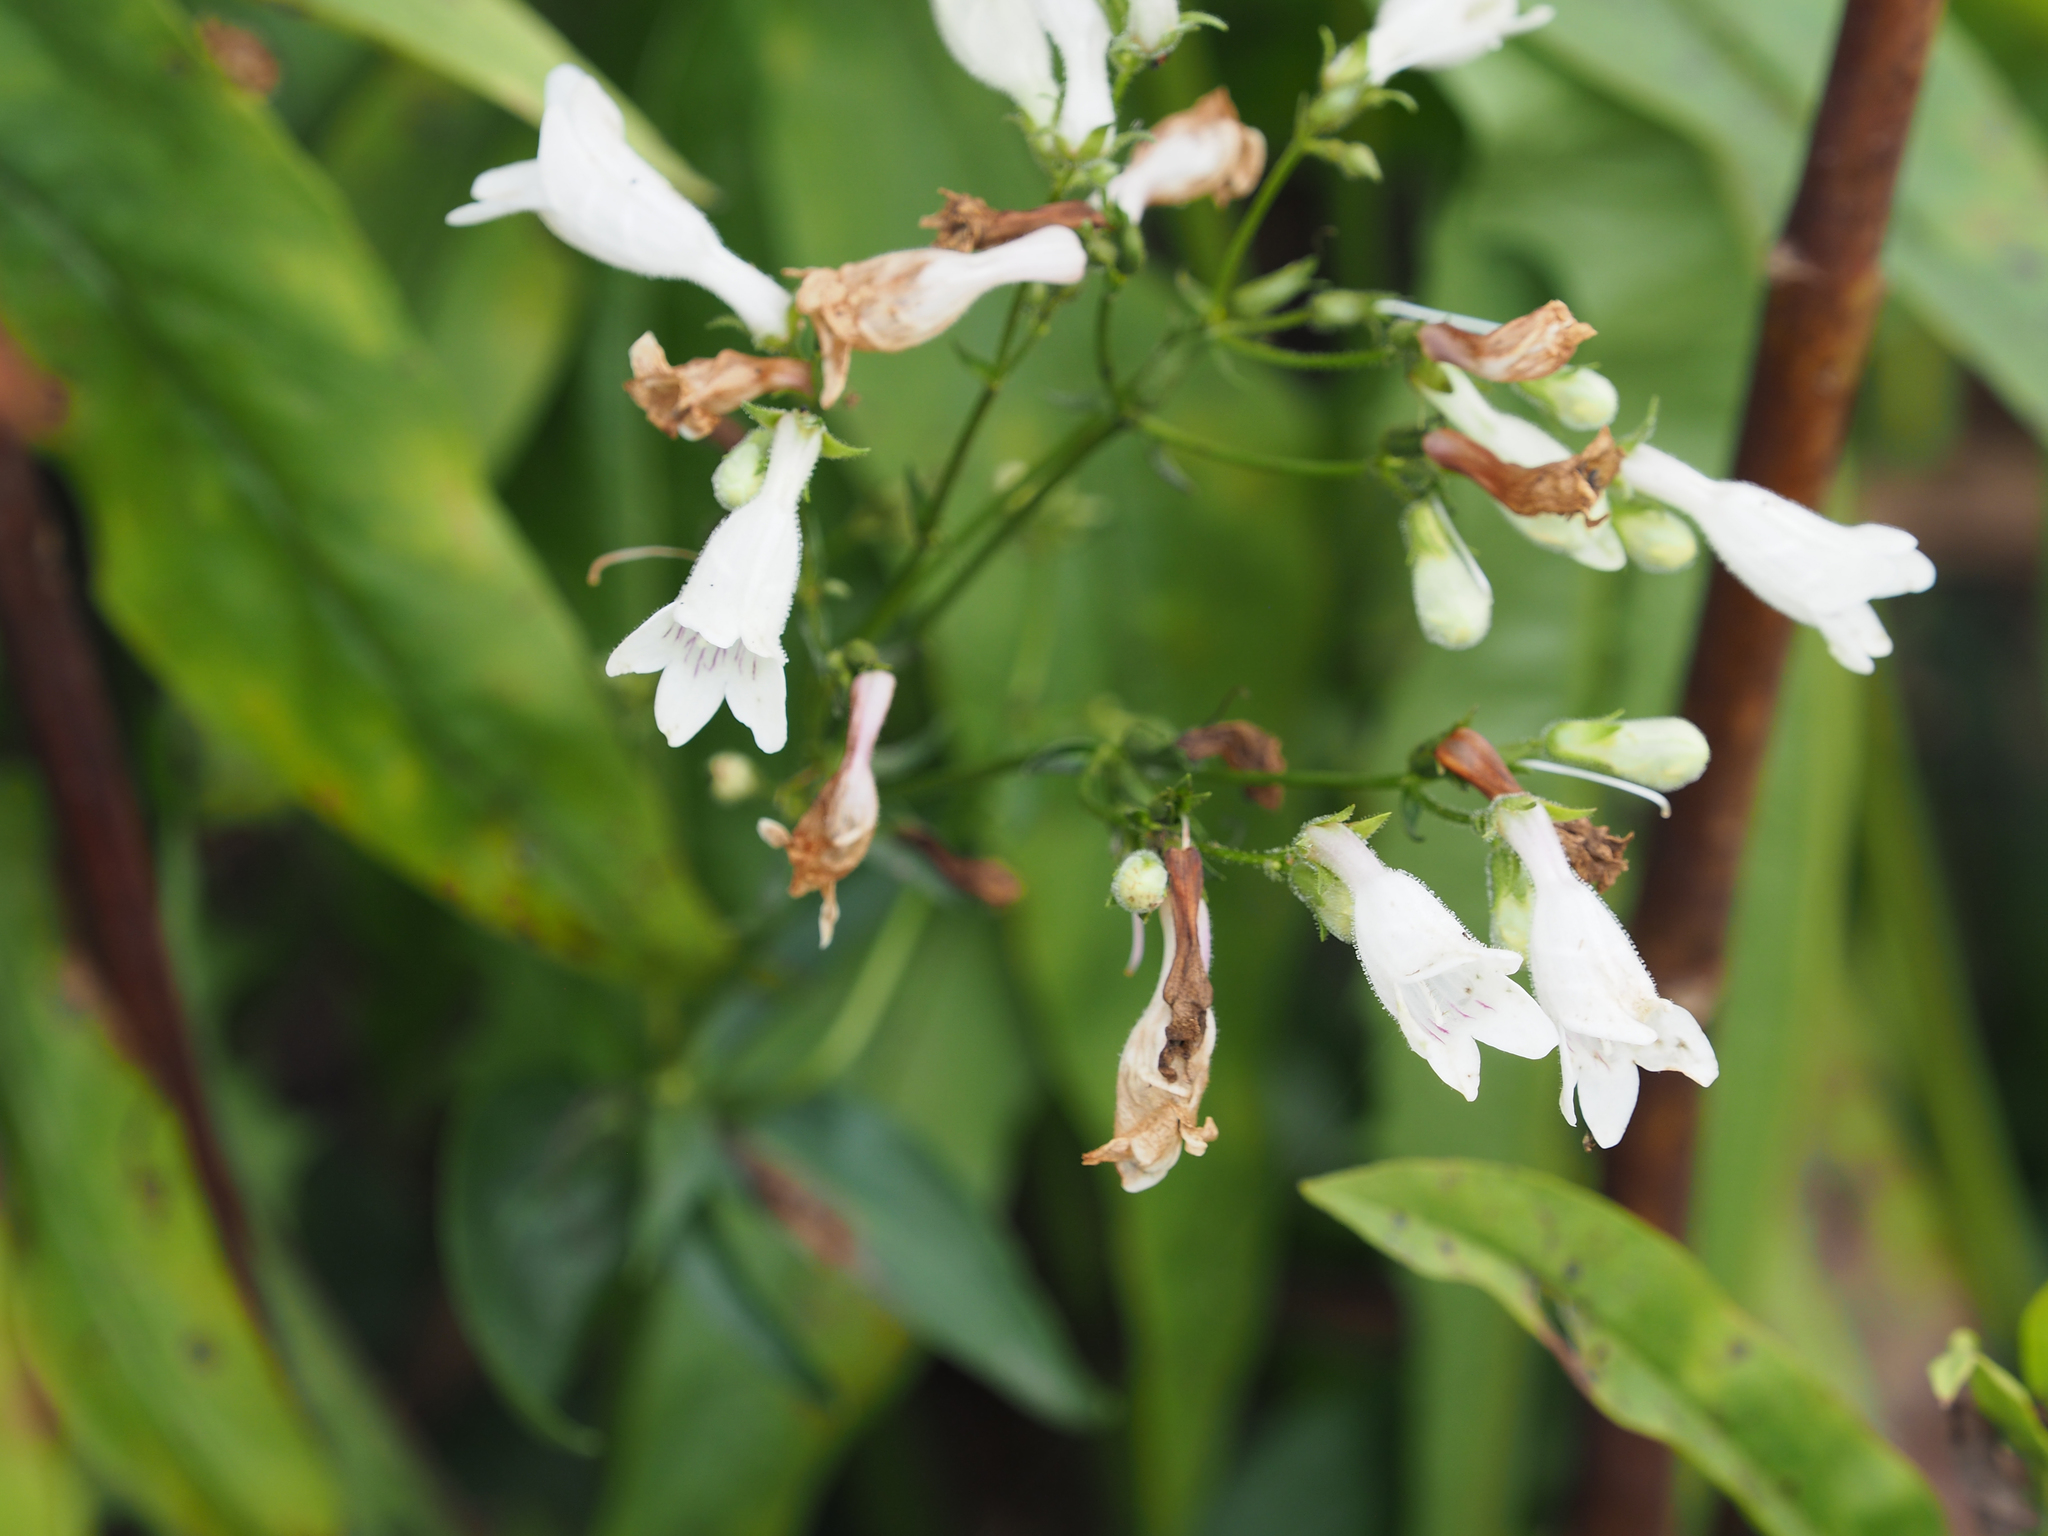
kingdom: Plantae
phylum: Tracheophyta
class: Magnoliopsida
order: Lamiales
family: Plantaginaceae
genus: Penstemon
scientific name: Penstemon digitalis
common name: Foxglove beardtongue
